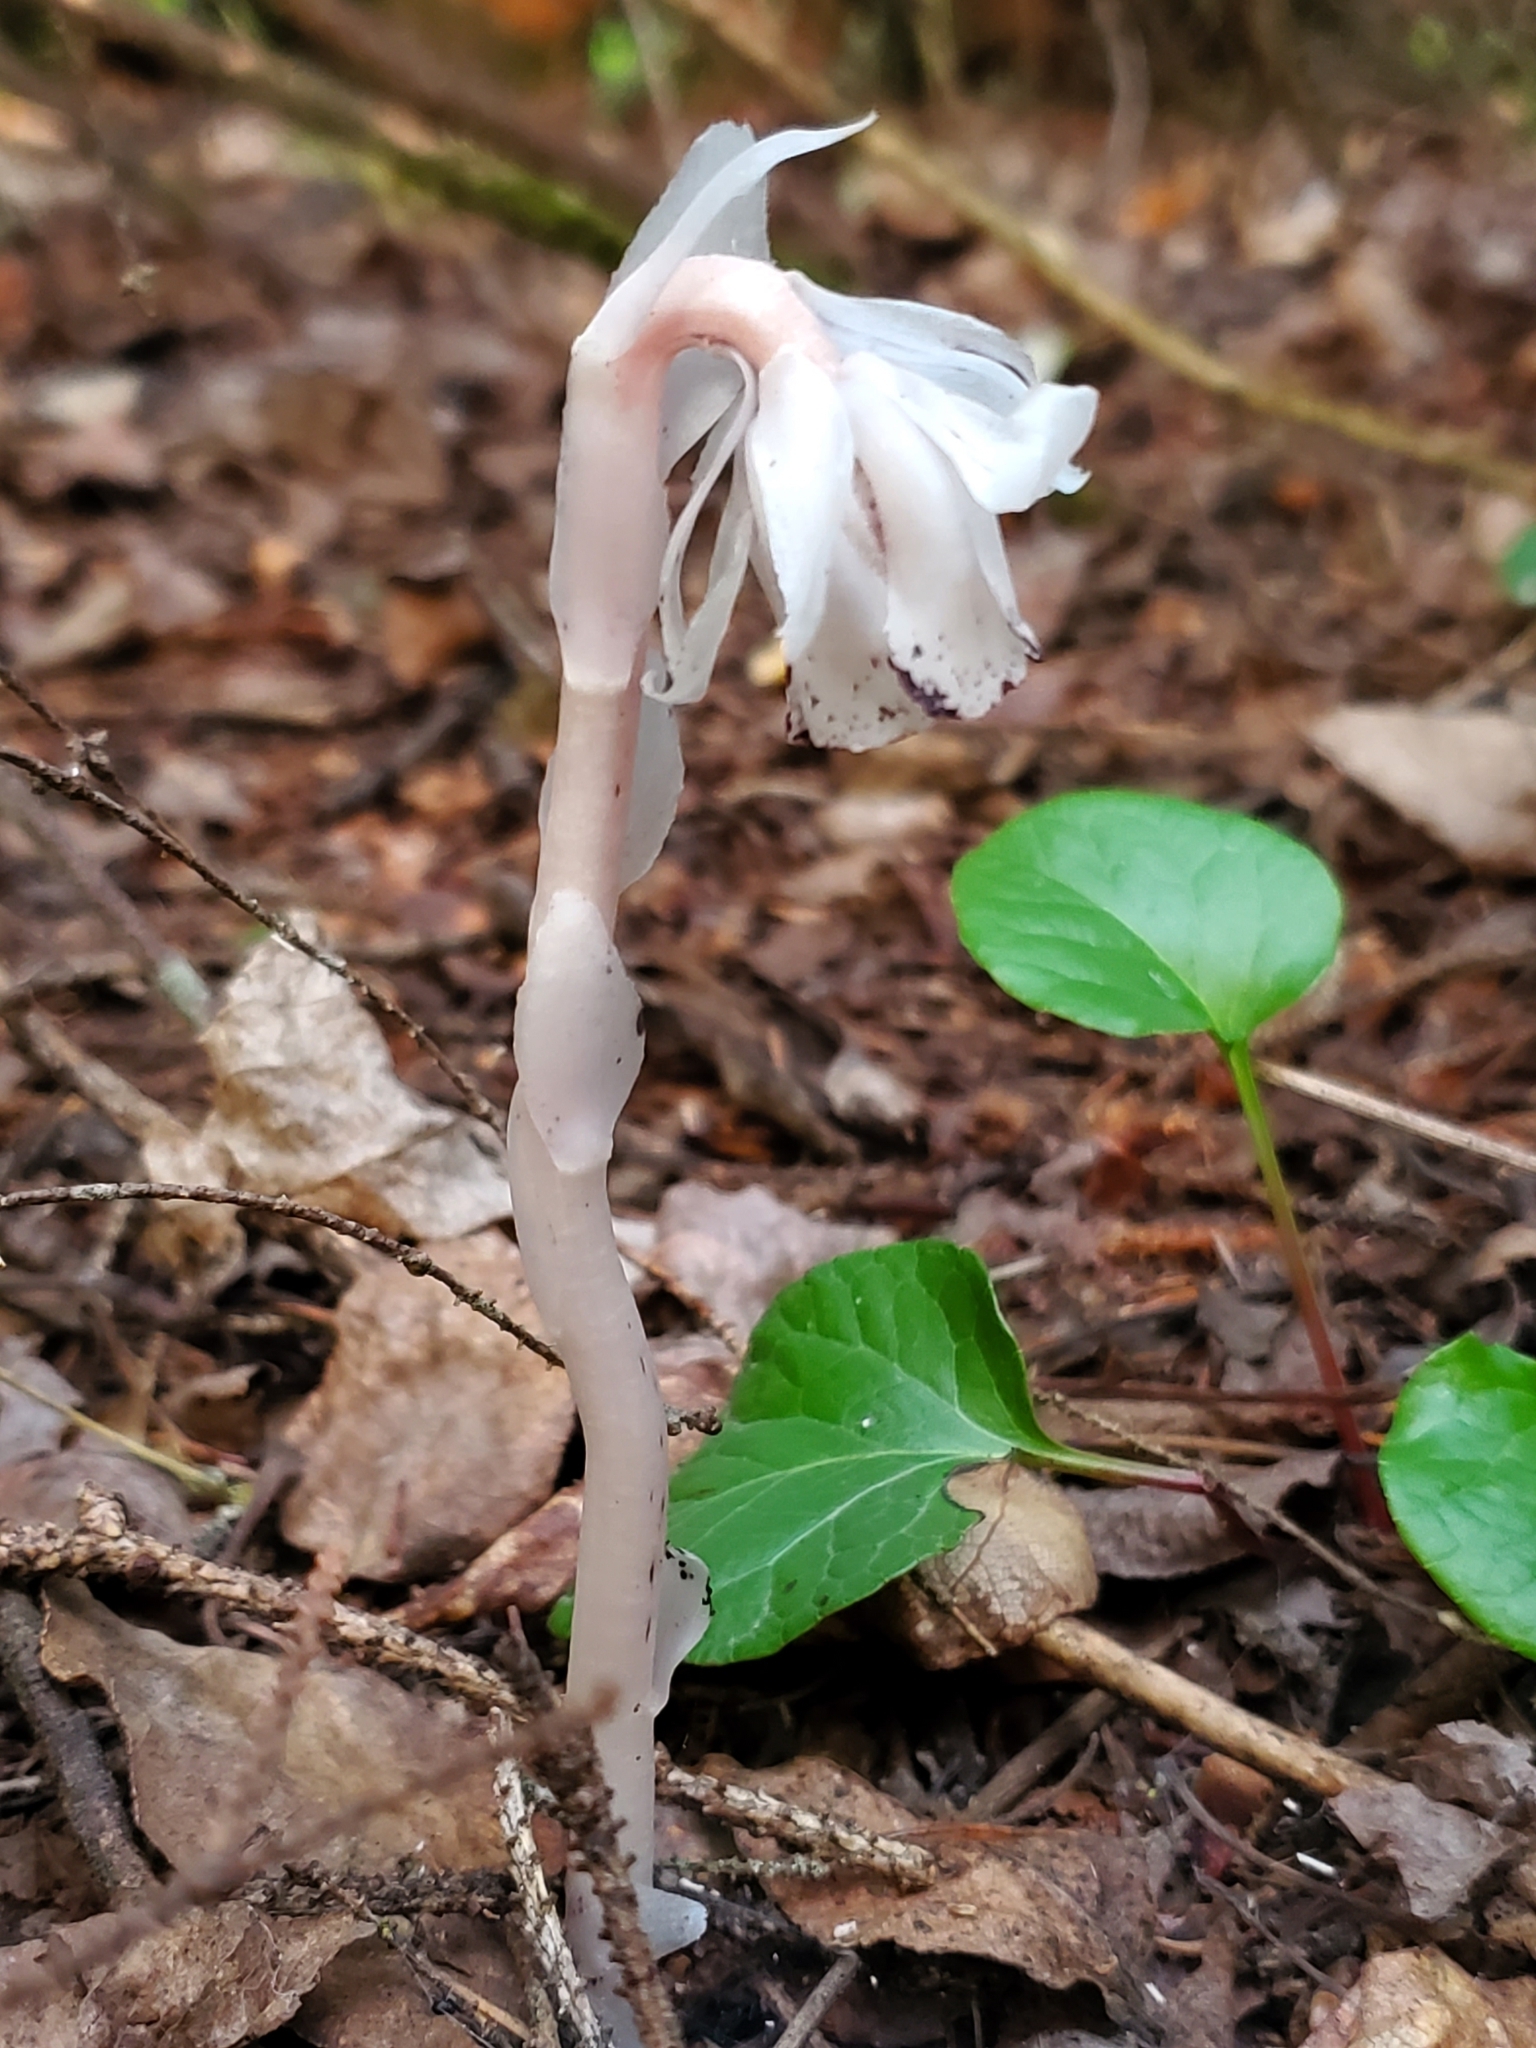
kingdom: Plantae
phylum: Tracheophyta
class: Magnoliopsida
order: Ericales
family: Ericaceae
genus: Monotropa
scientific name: Monotropa uniflora
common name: Convulsion root
